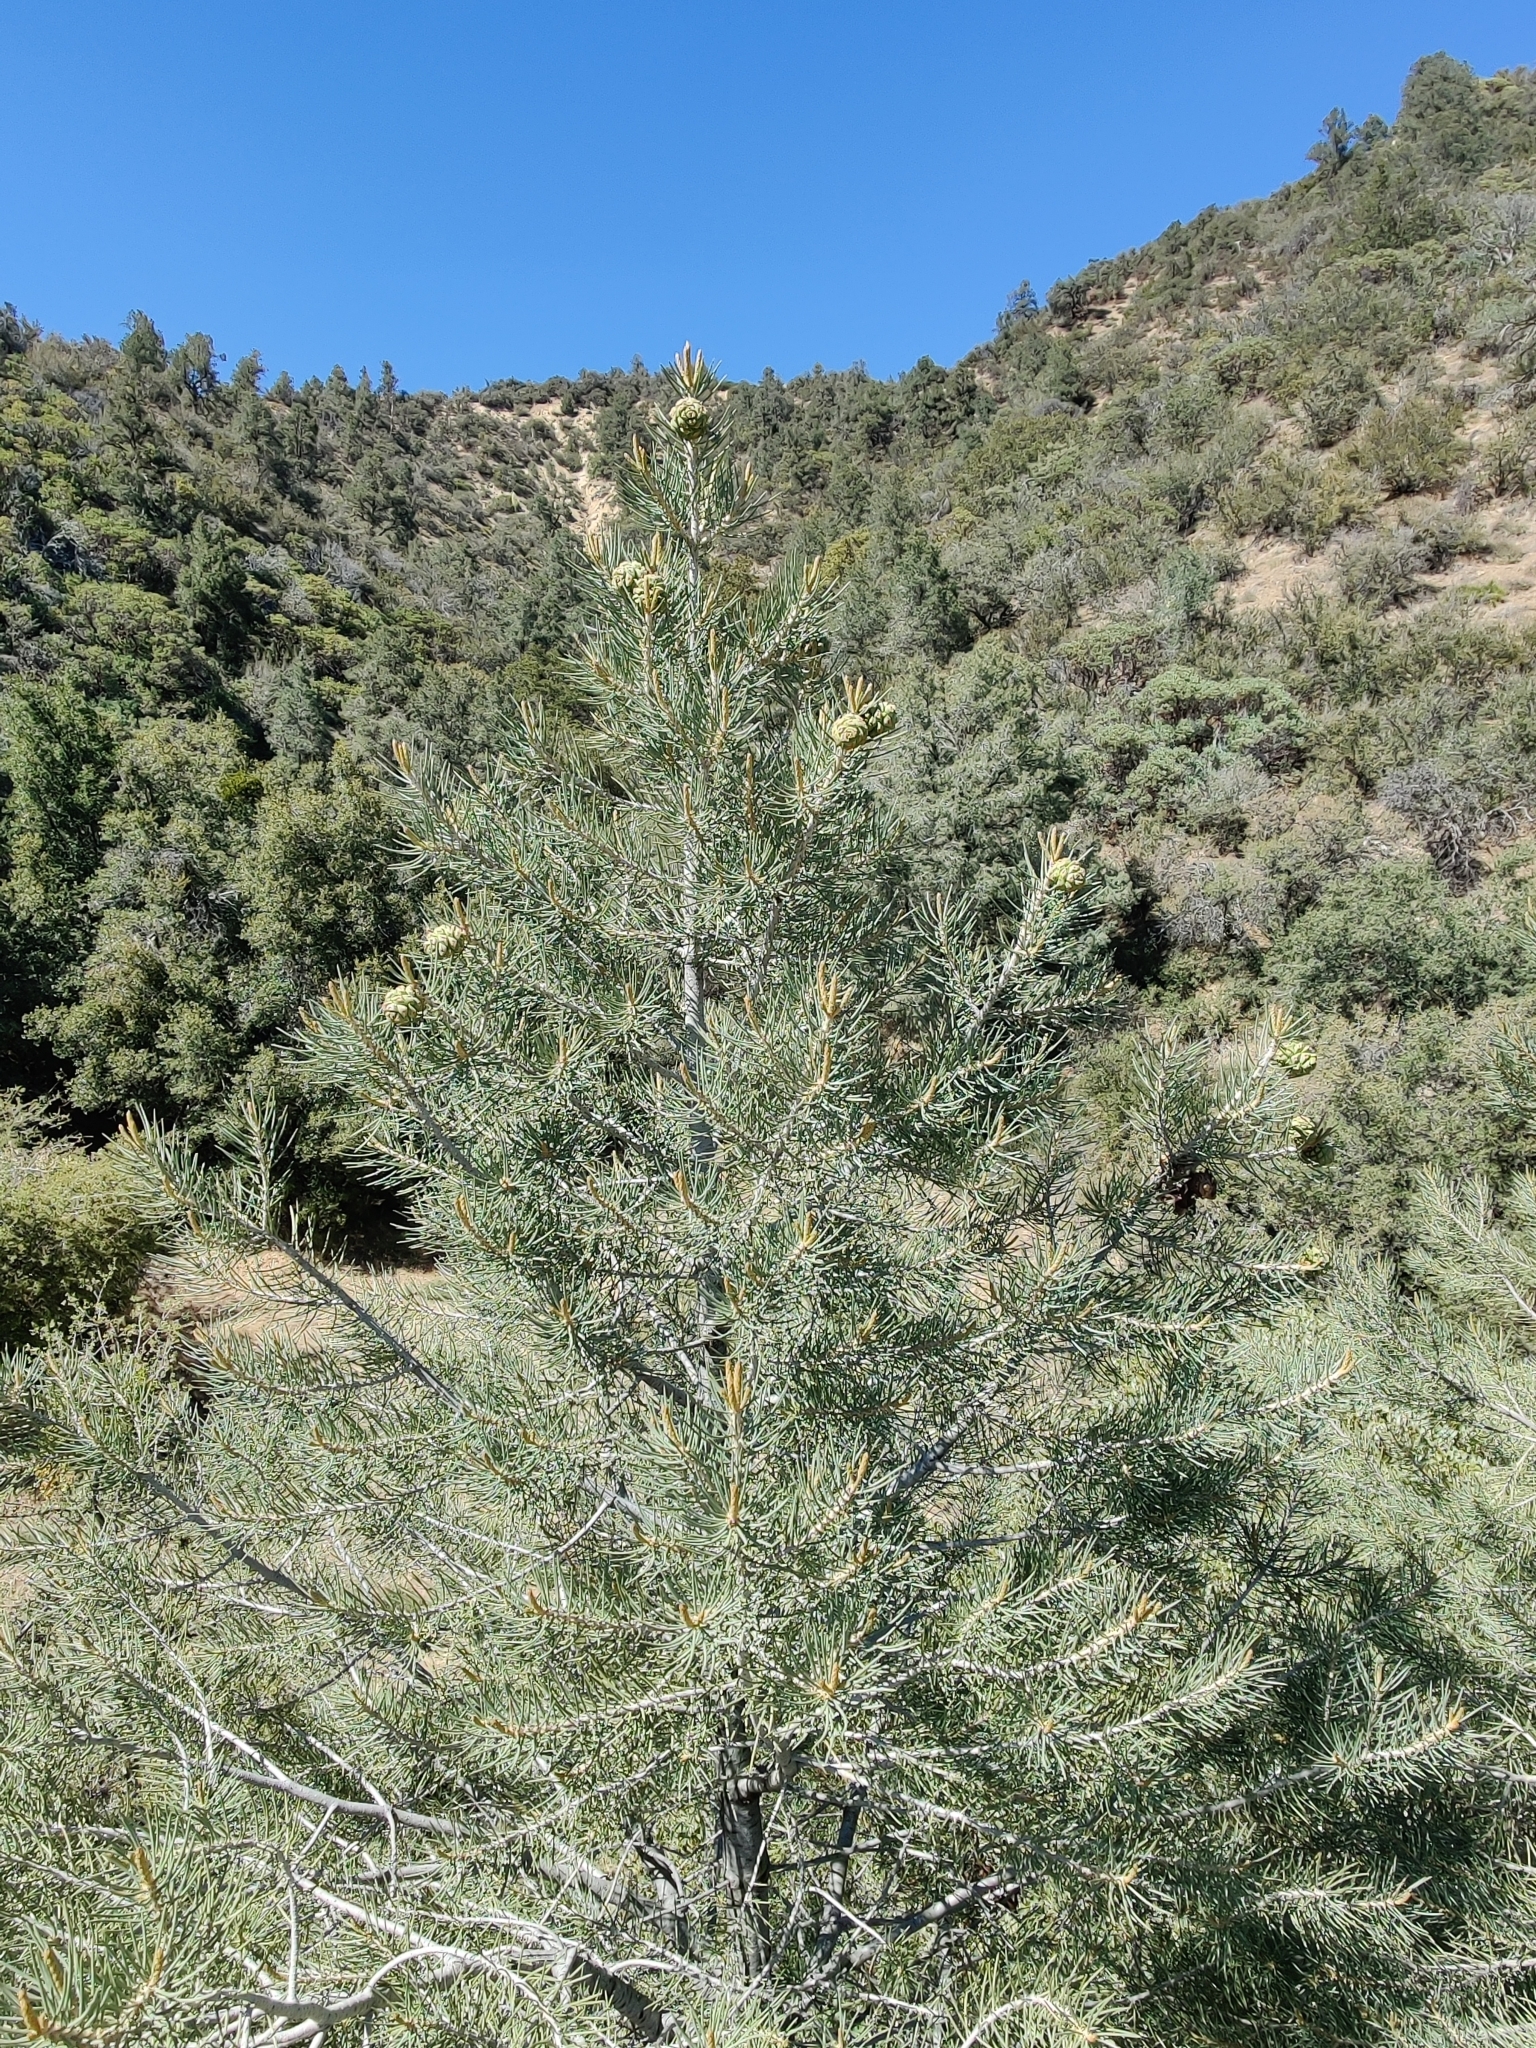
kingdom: Plantae
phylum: Tracheophyta
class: Pinopsida
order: Pinales
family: Pinaceae
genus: Pinus
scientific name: Pinus monophylla
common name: One-leaved nut pine
